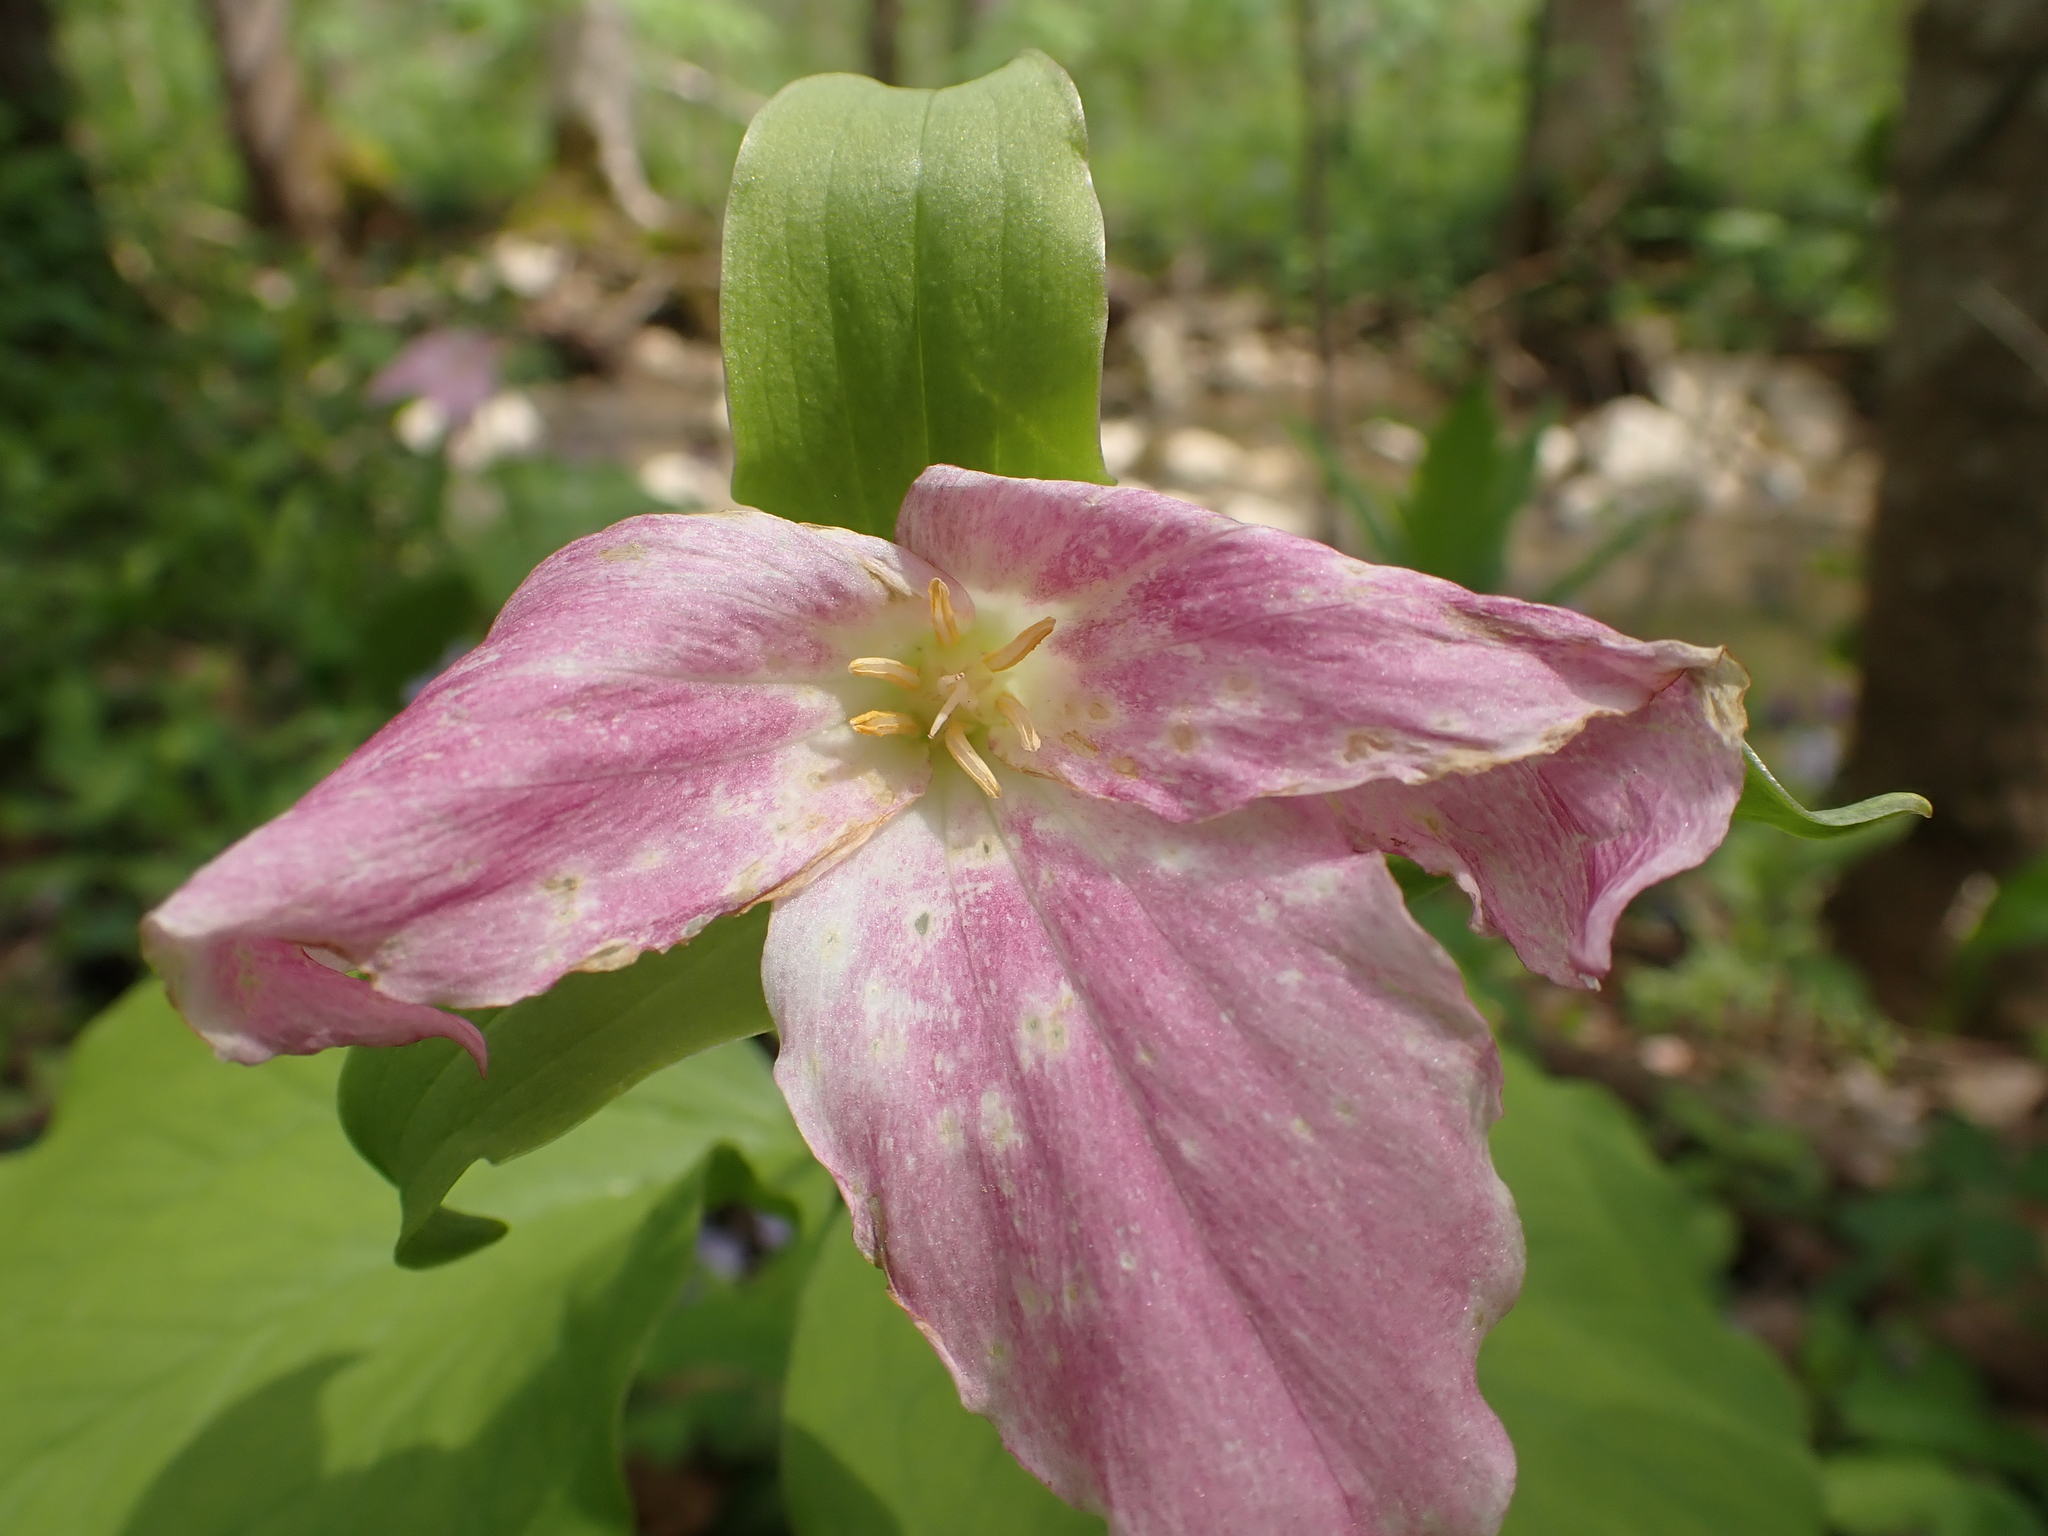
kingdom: Plantae
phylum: Tracheophyta
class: Liliopsida
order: Liliales
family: Melanthiaceae
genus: Trillium
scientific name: Trillium grandiflorum
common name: Great white trillium
